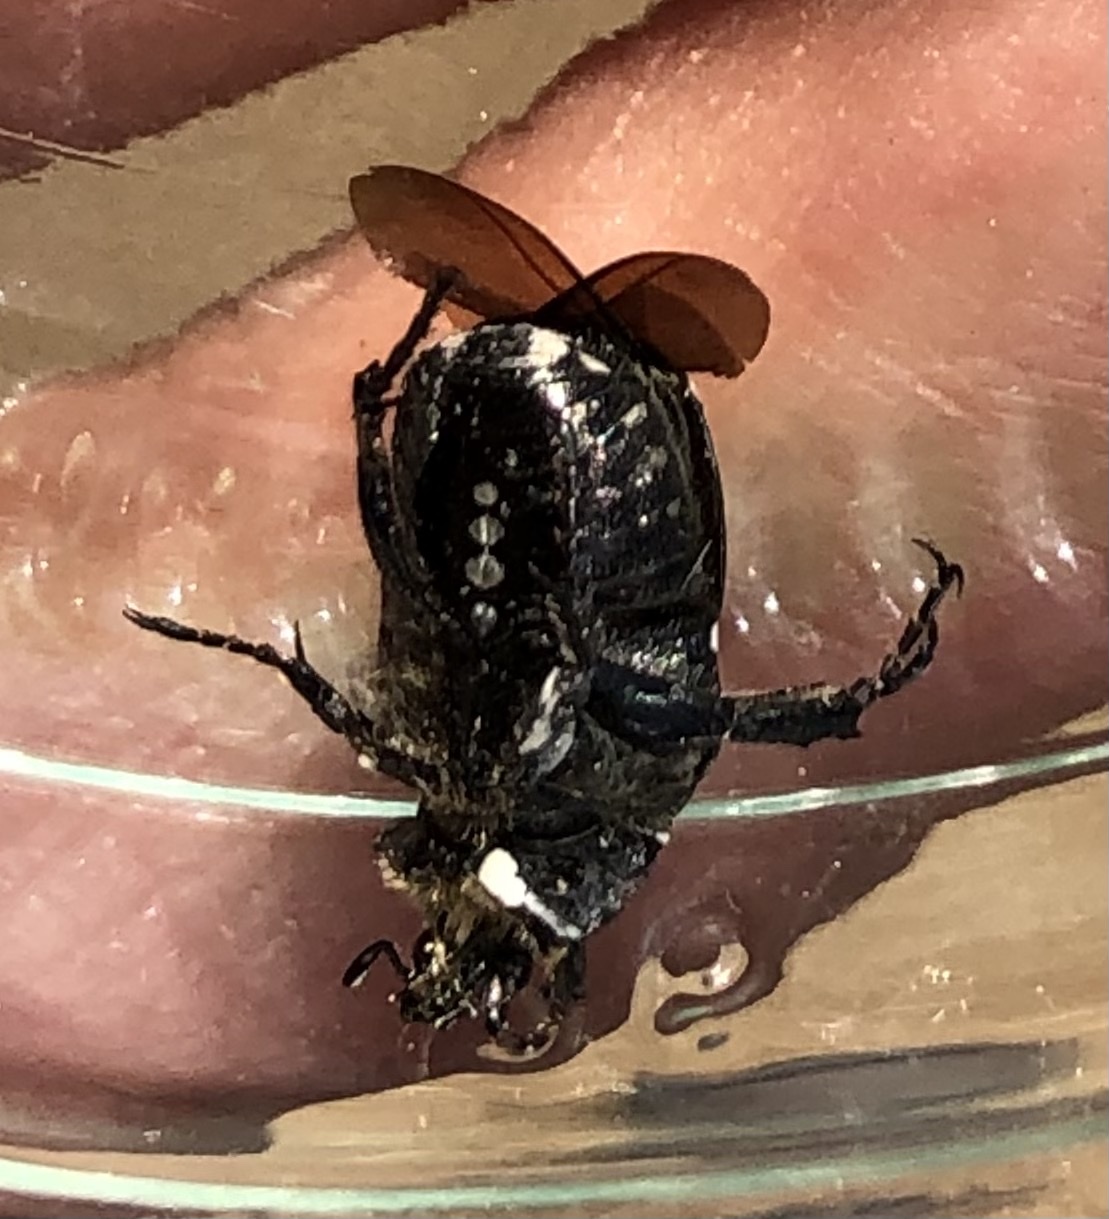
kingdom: Animalia
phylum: Arthropoda
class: Insecta
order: Coleoptera
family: Scarabaeidae
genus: Oxythyrea
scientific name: Oxythyrea funesta
